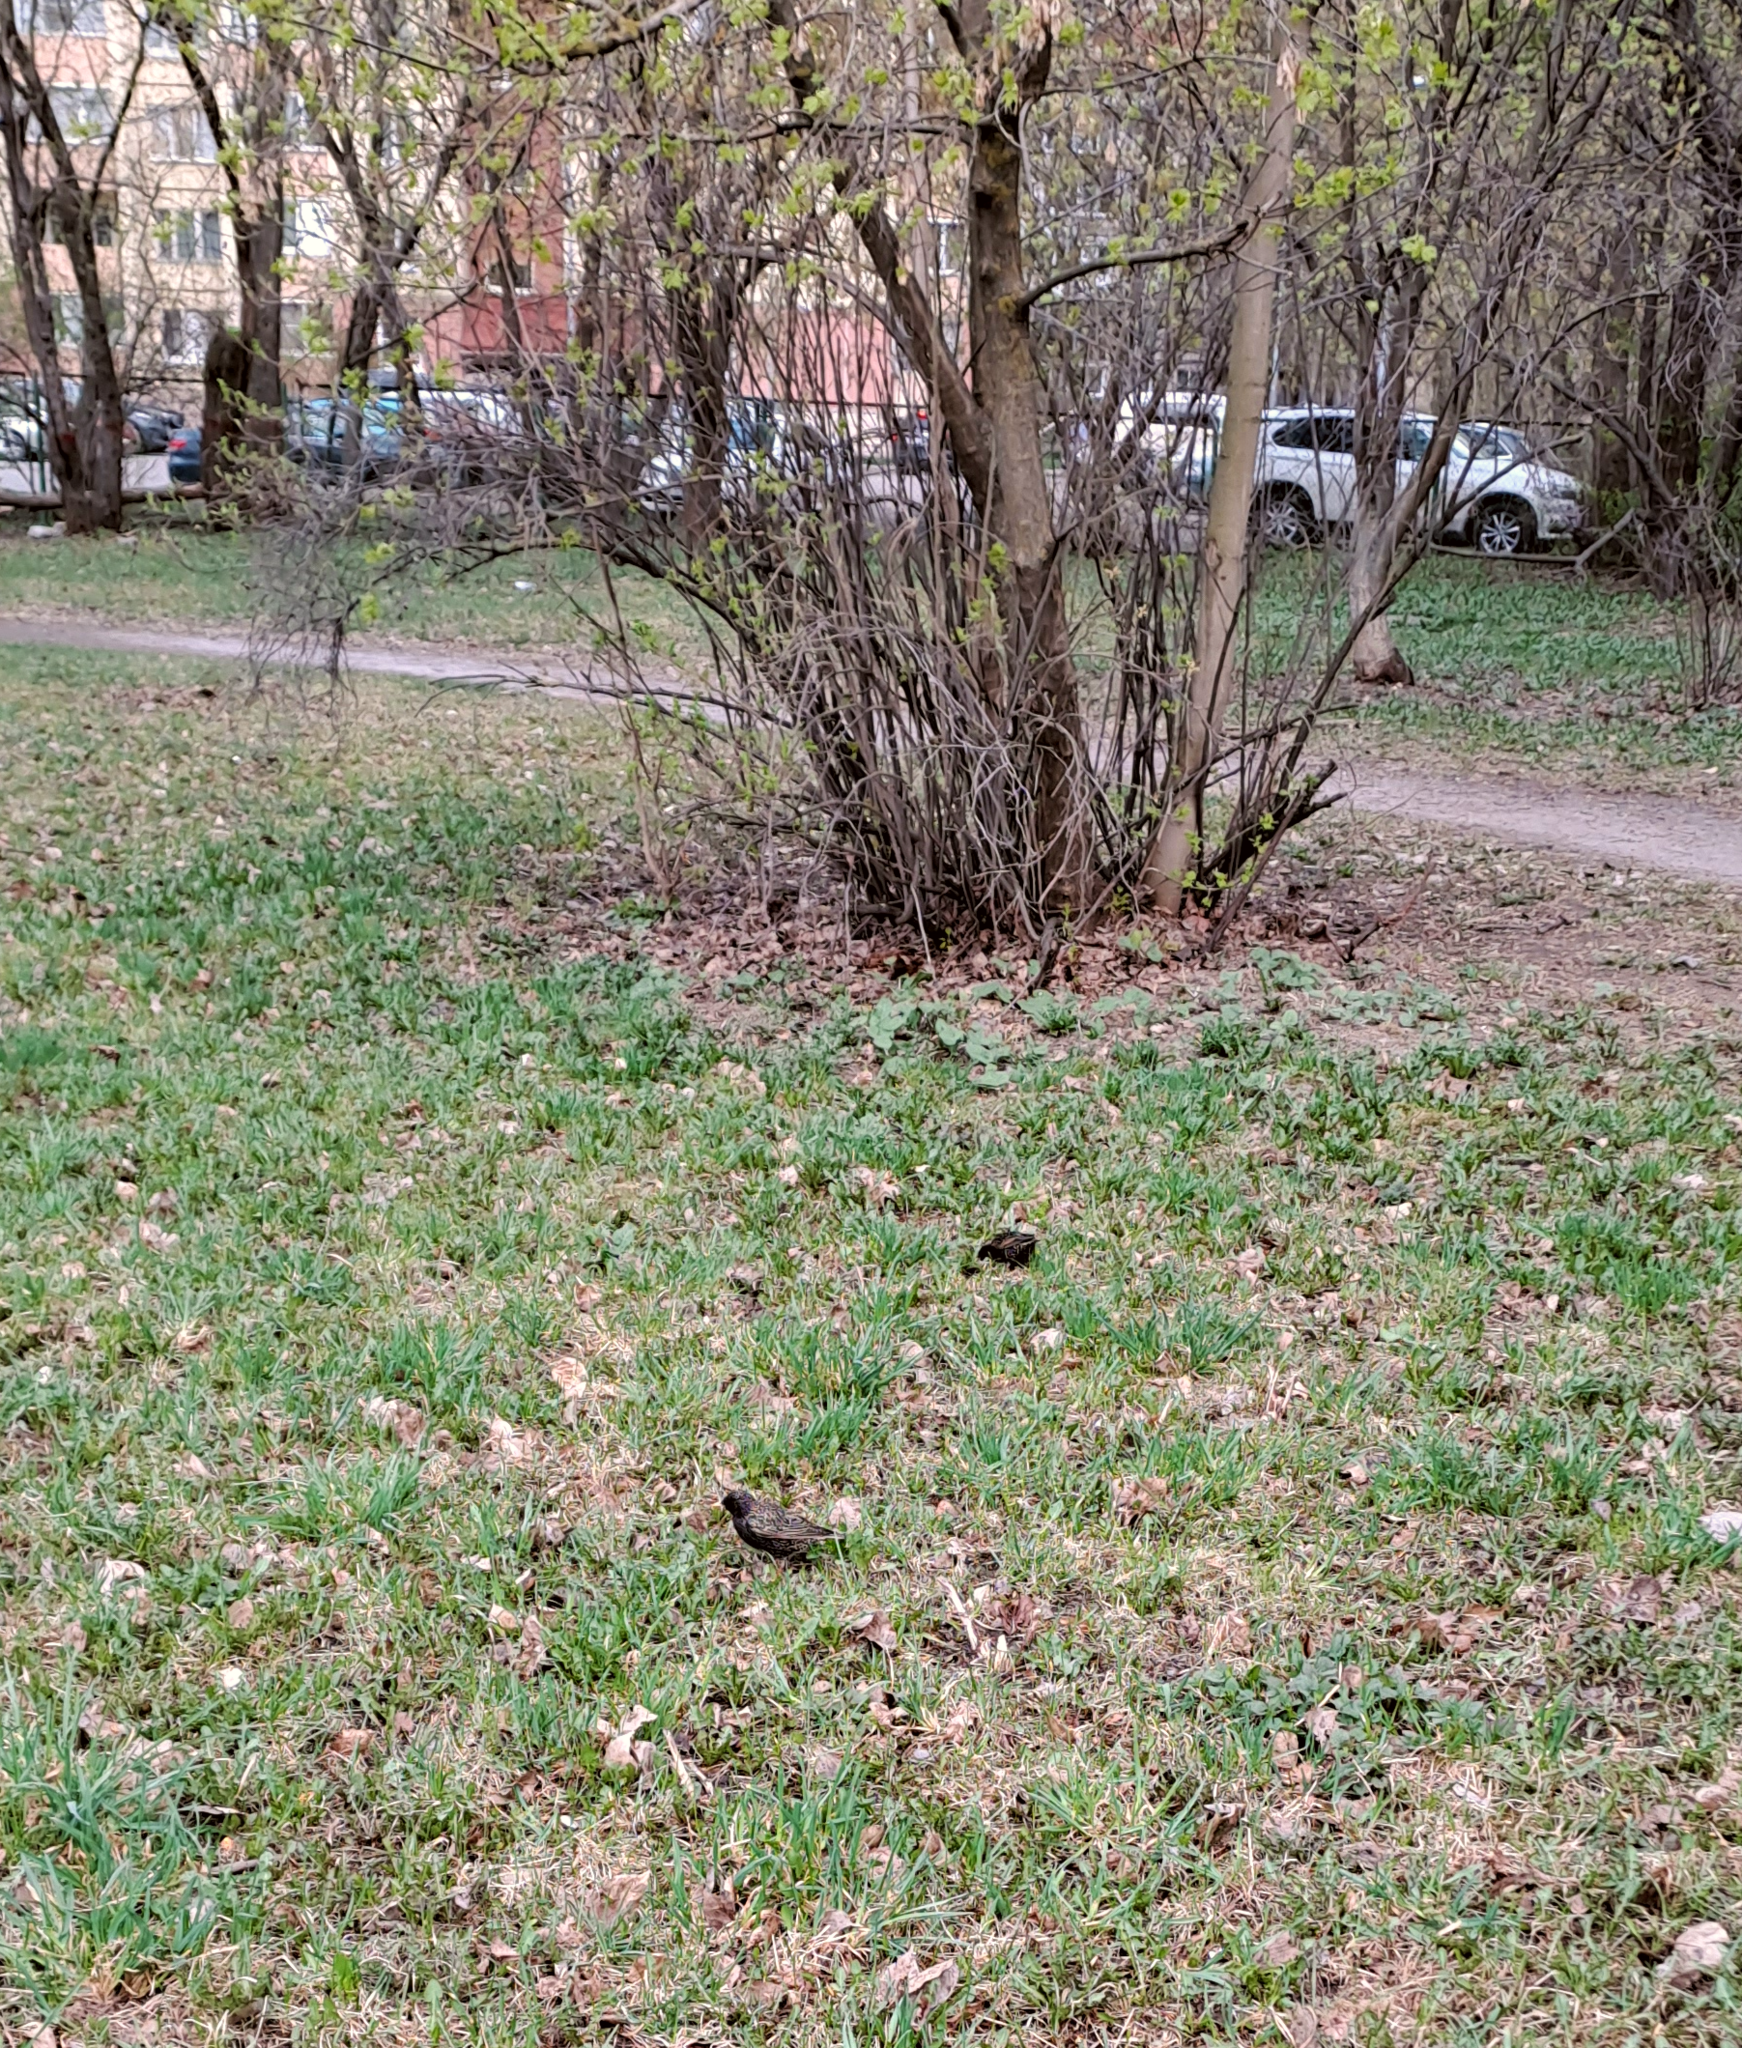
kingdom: Animalia
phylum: Chordata
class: Aves
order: Passeriformes
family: Sturnidae
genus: Sturnus
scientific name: Sturnus vulgaris
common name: Common starling
